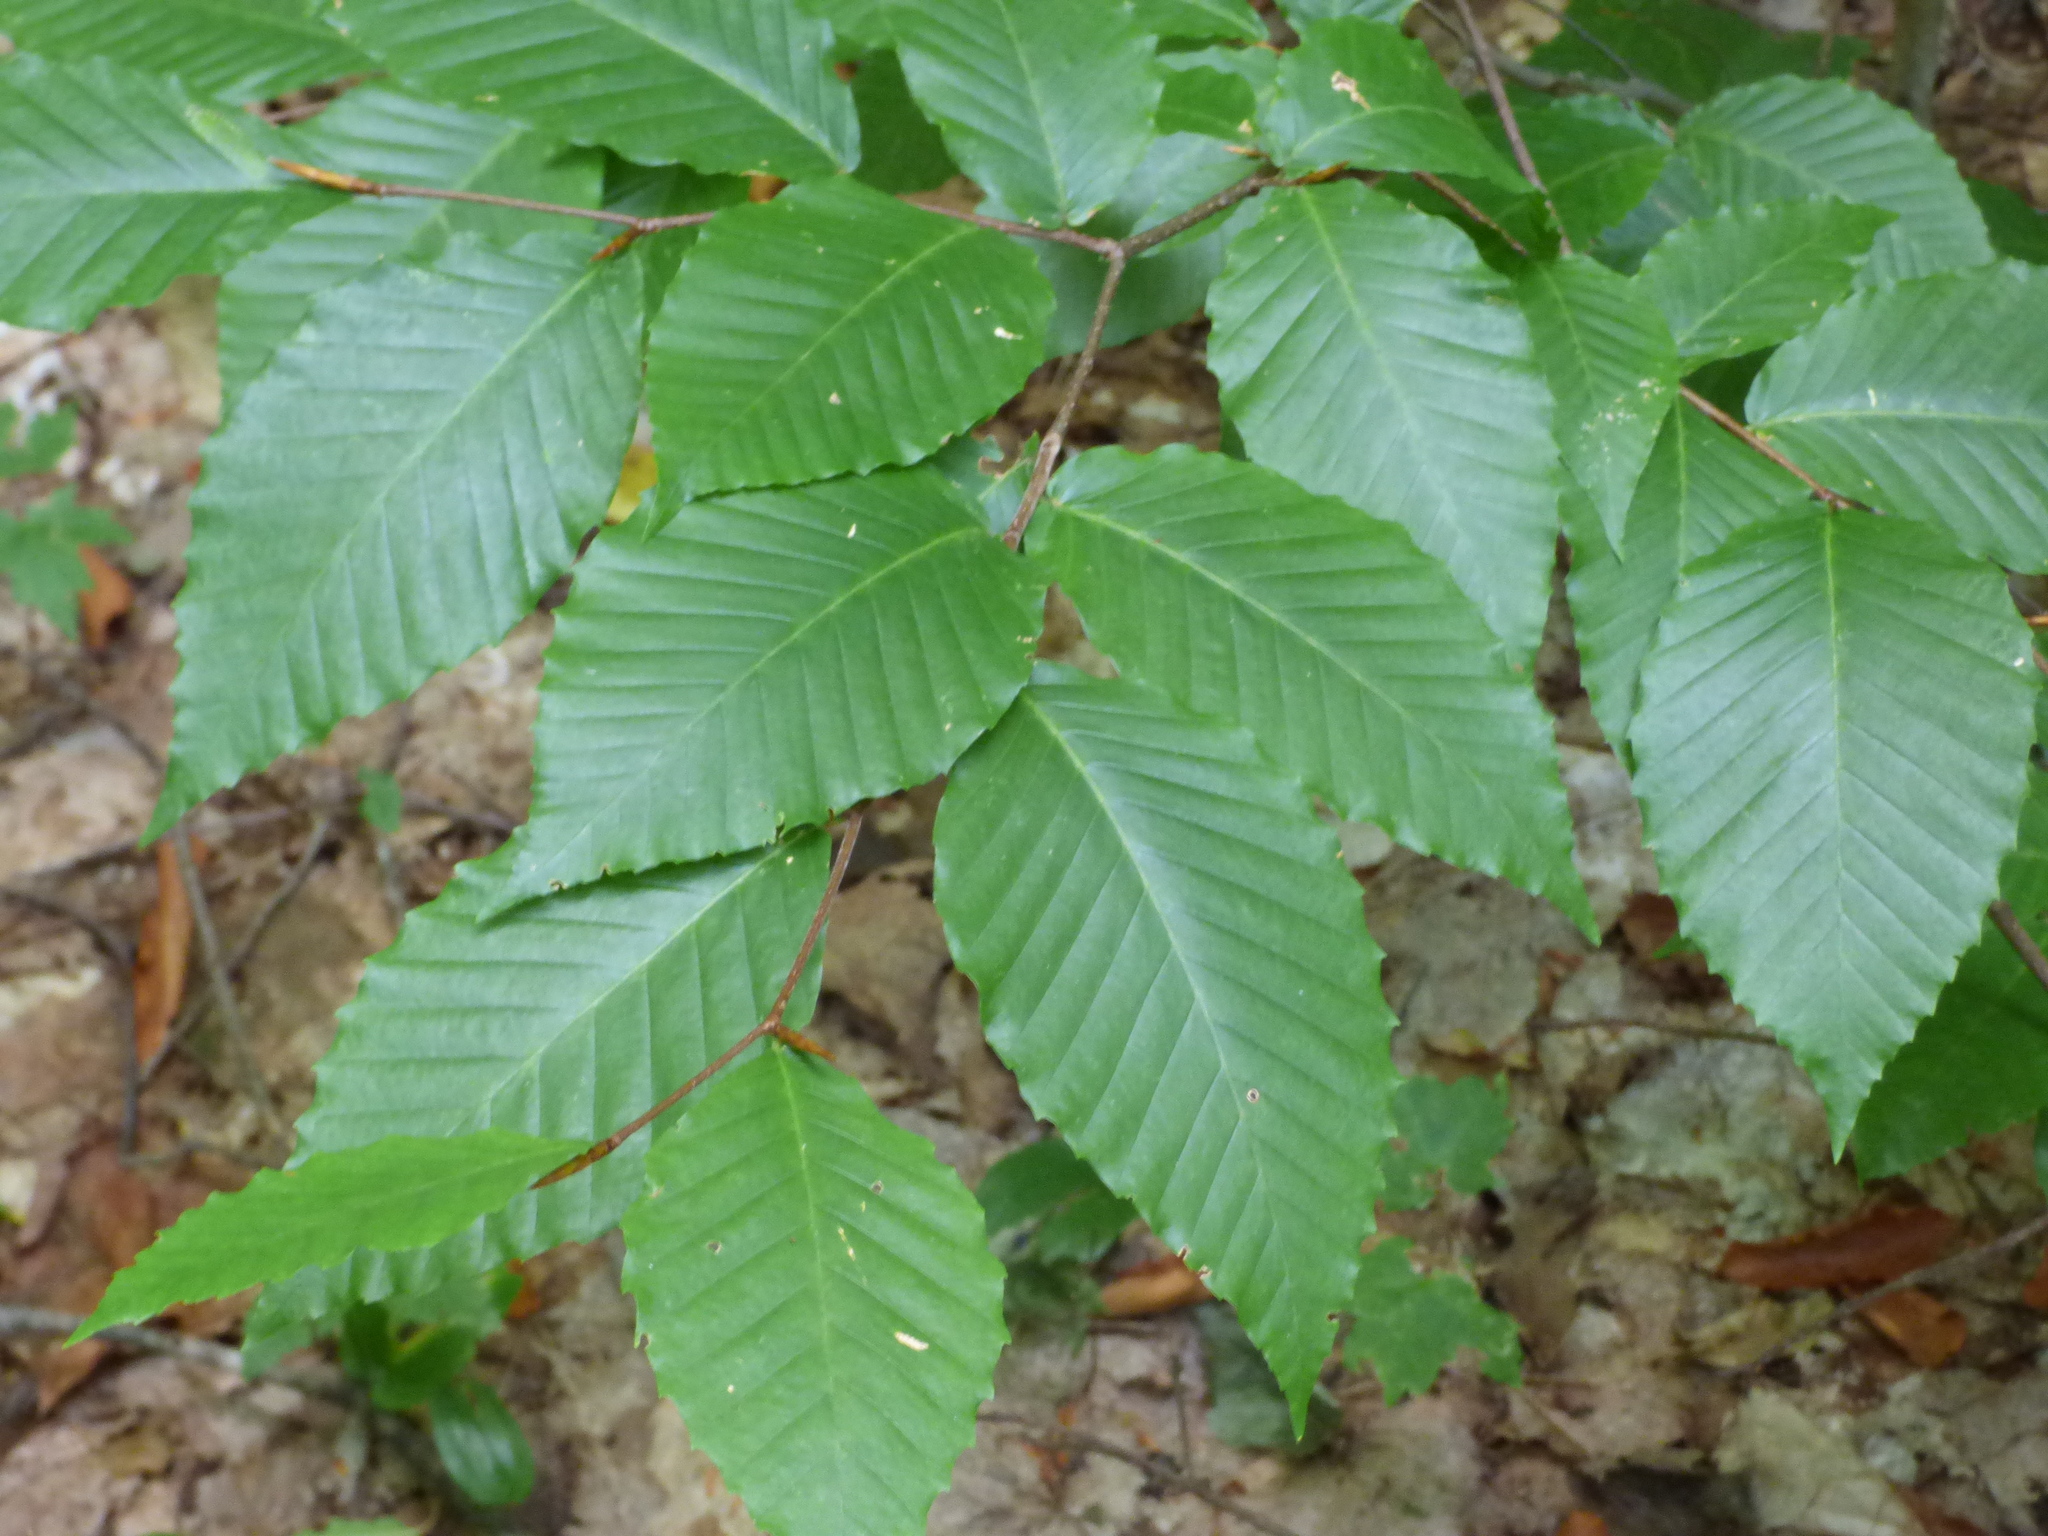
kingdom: Plantae
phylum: Tracheophyta
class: Magnoliopsida
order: Fagales
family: Fagaceae
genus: Fagus
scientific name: Fagus grandifolia
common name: American beech
